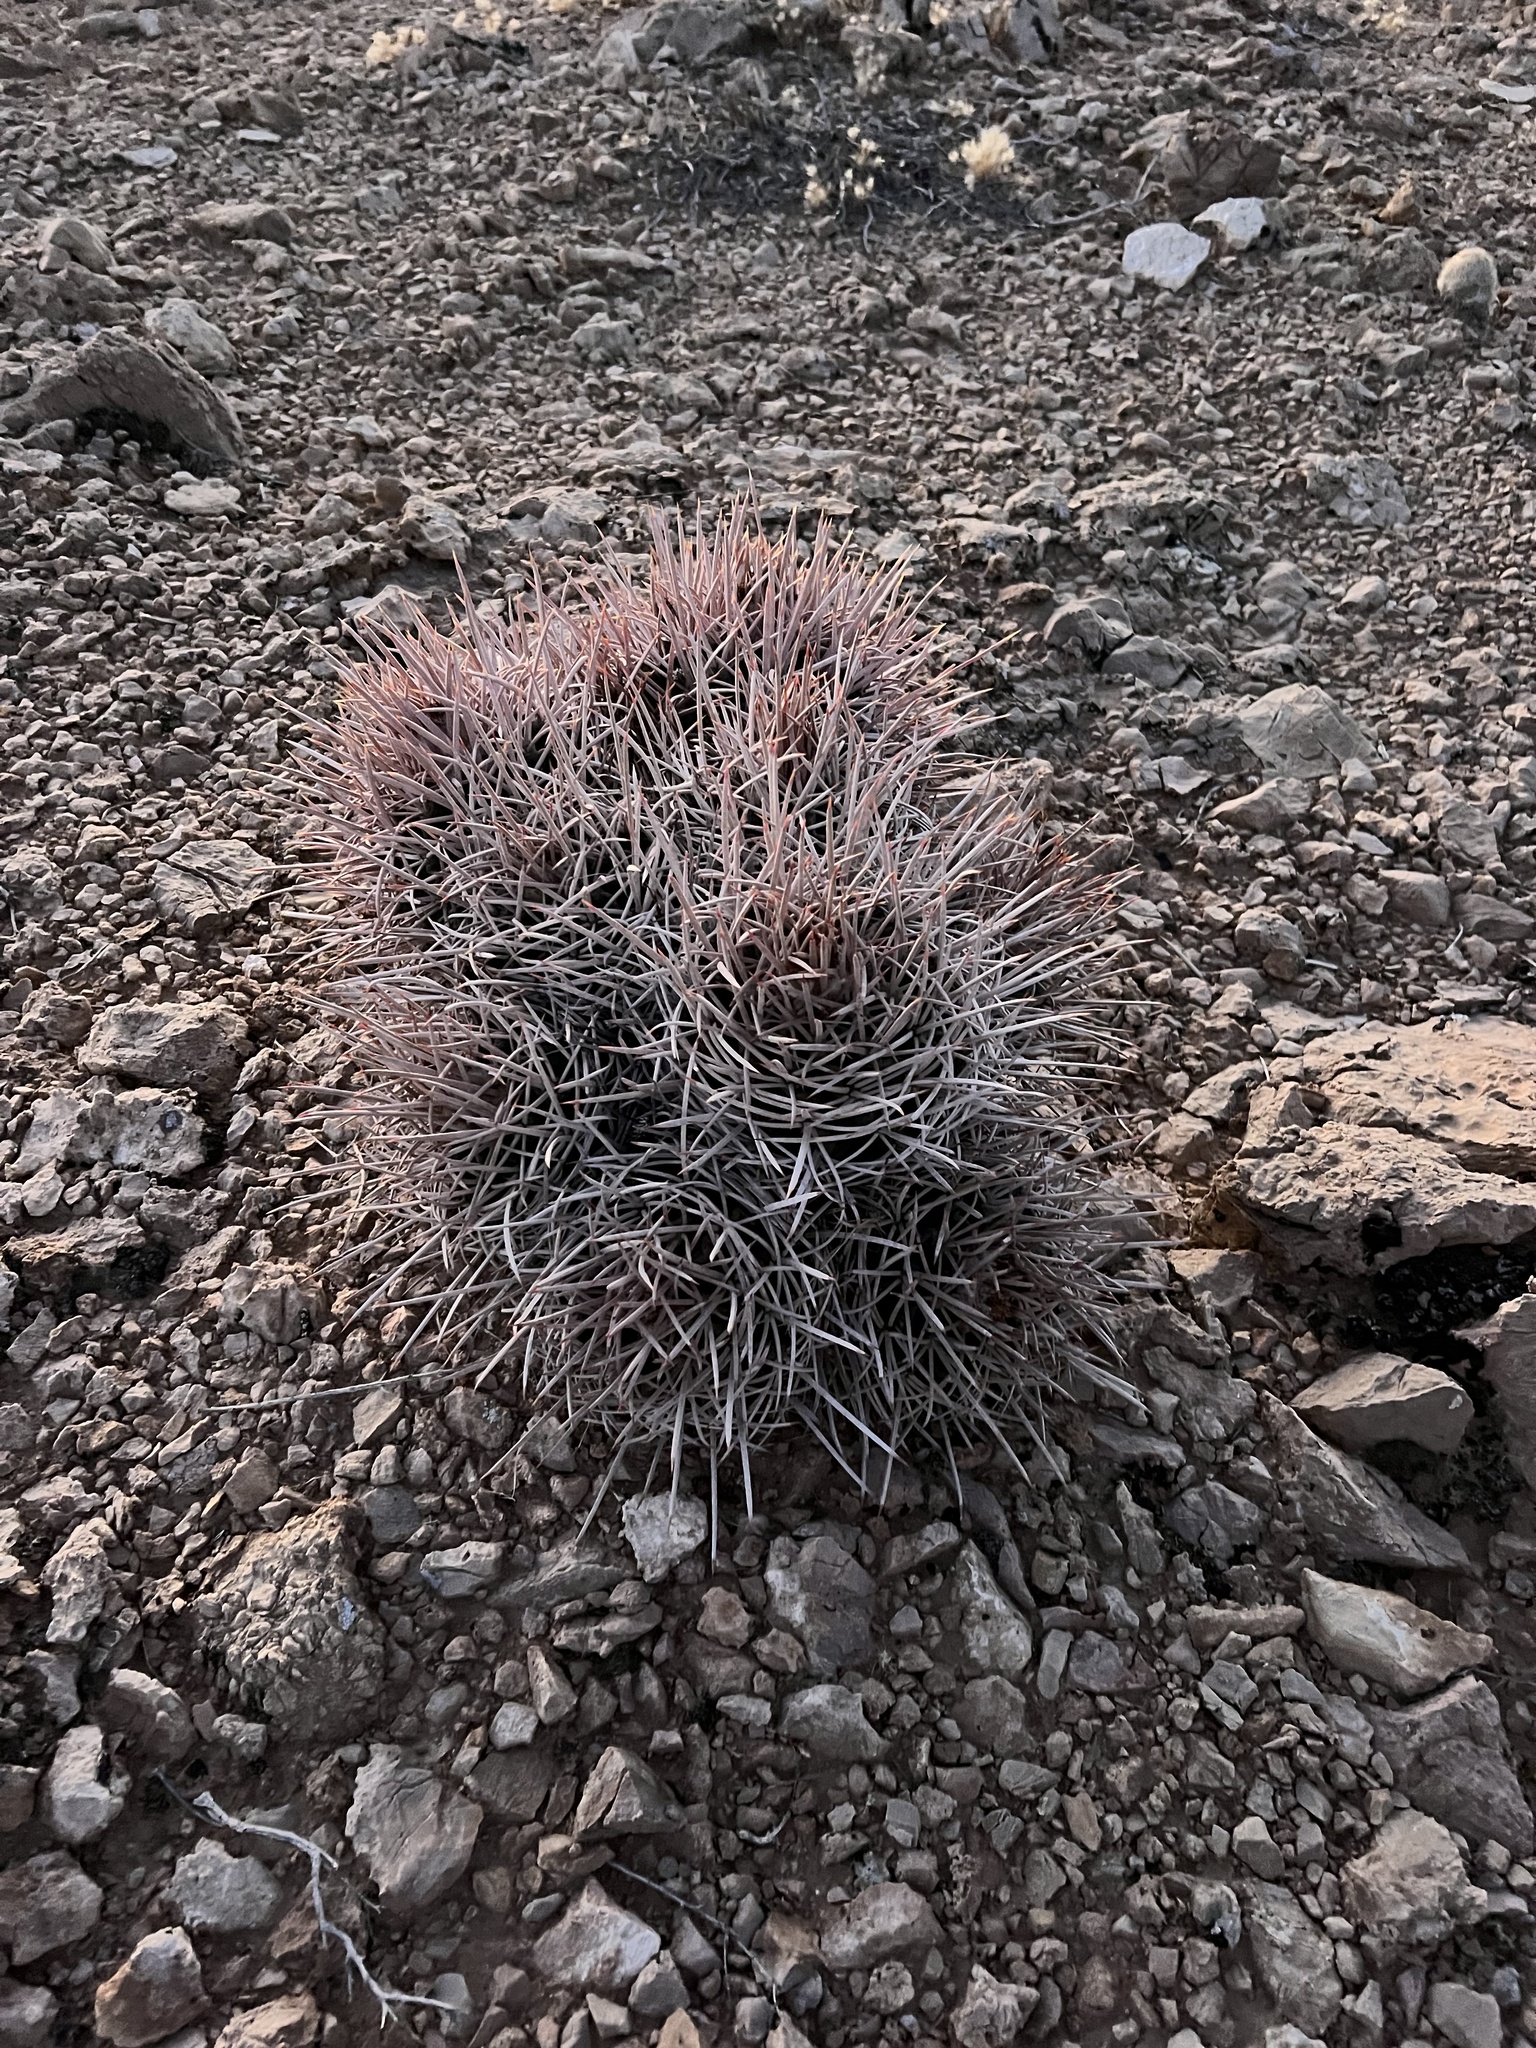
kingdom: Plantae
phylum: Tracheophyta
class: Magnoliopsida
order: Caryophyllales
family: Cactaceae
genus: Echinocactus
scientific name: Echinocactus polycephalus
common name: Cottontop cactus
